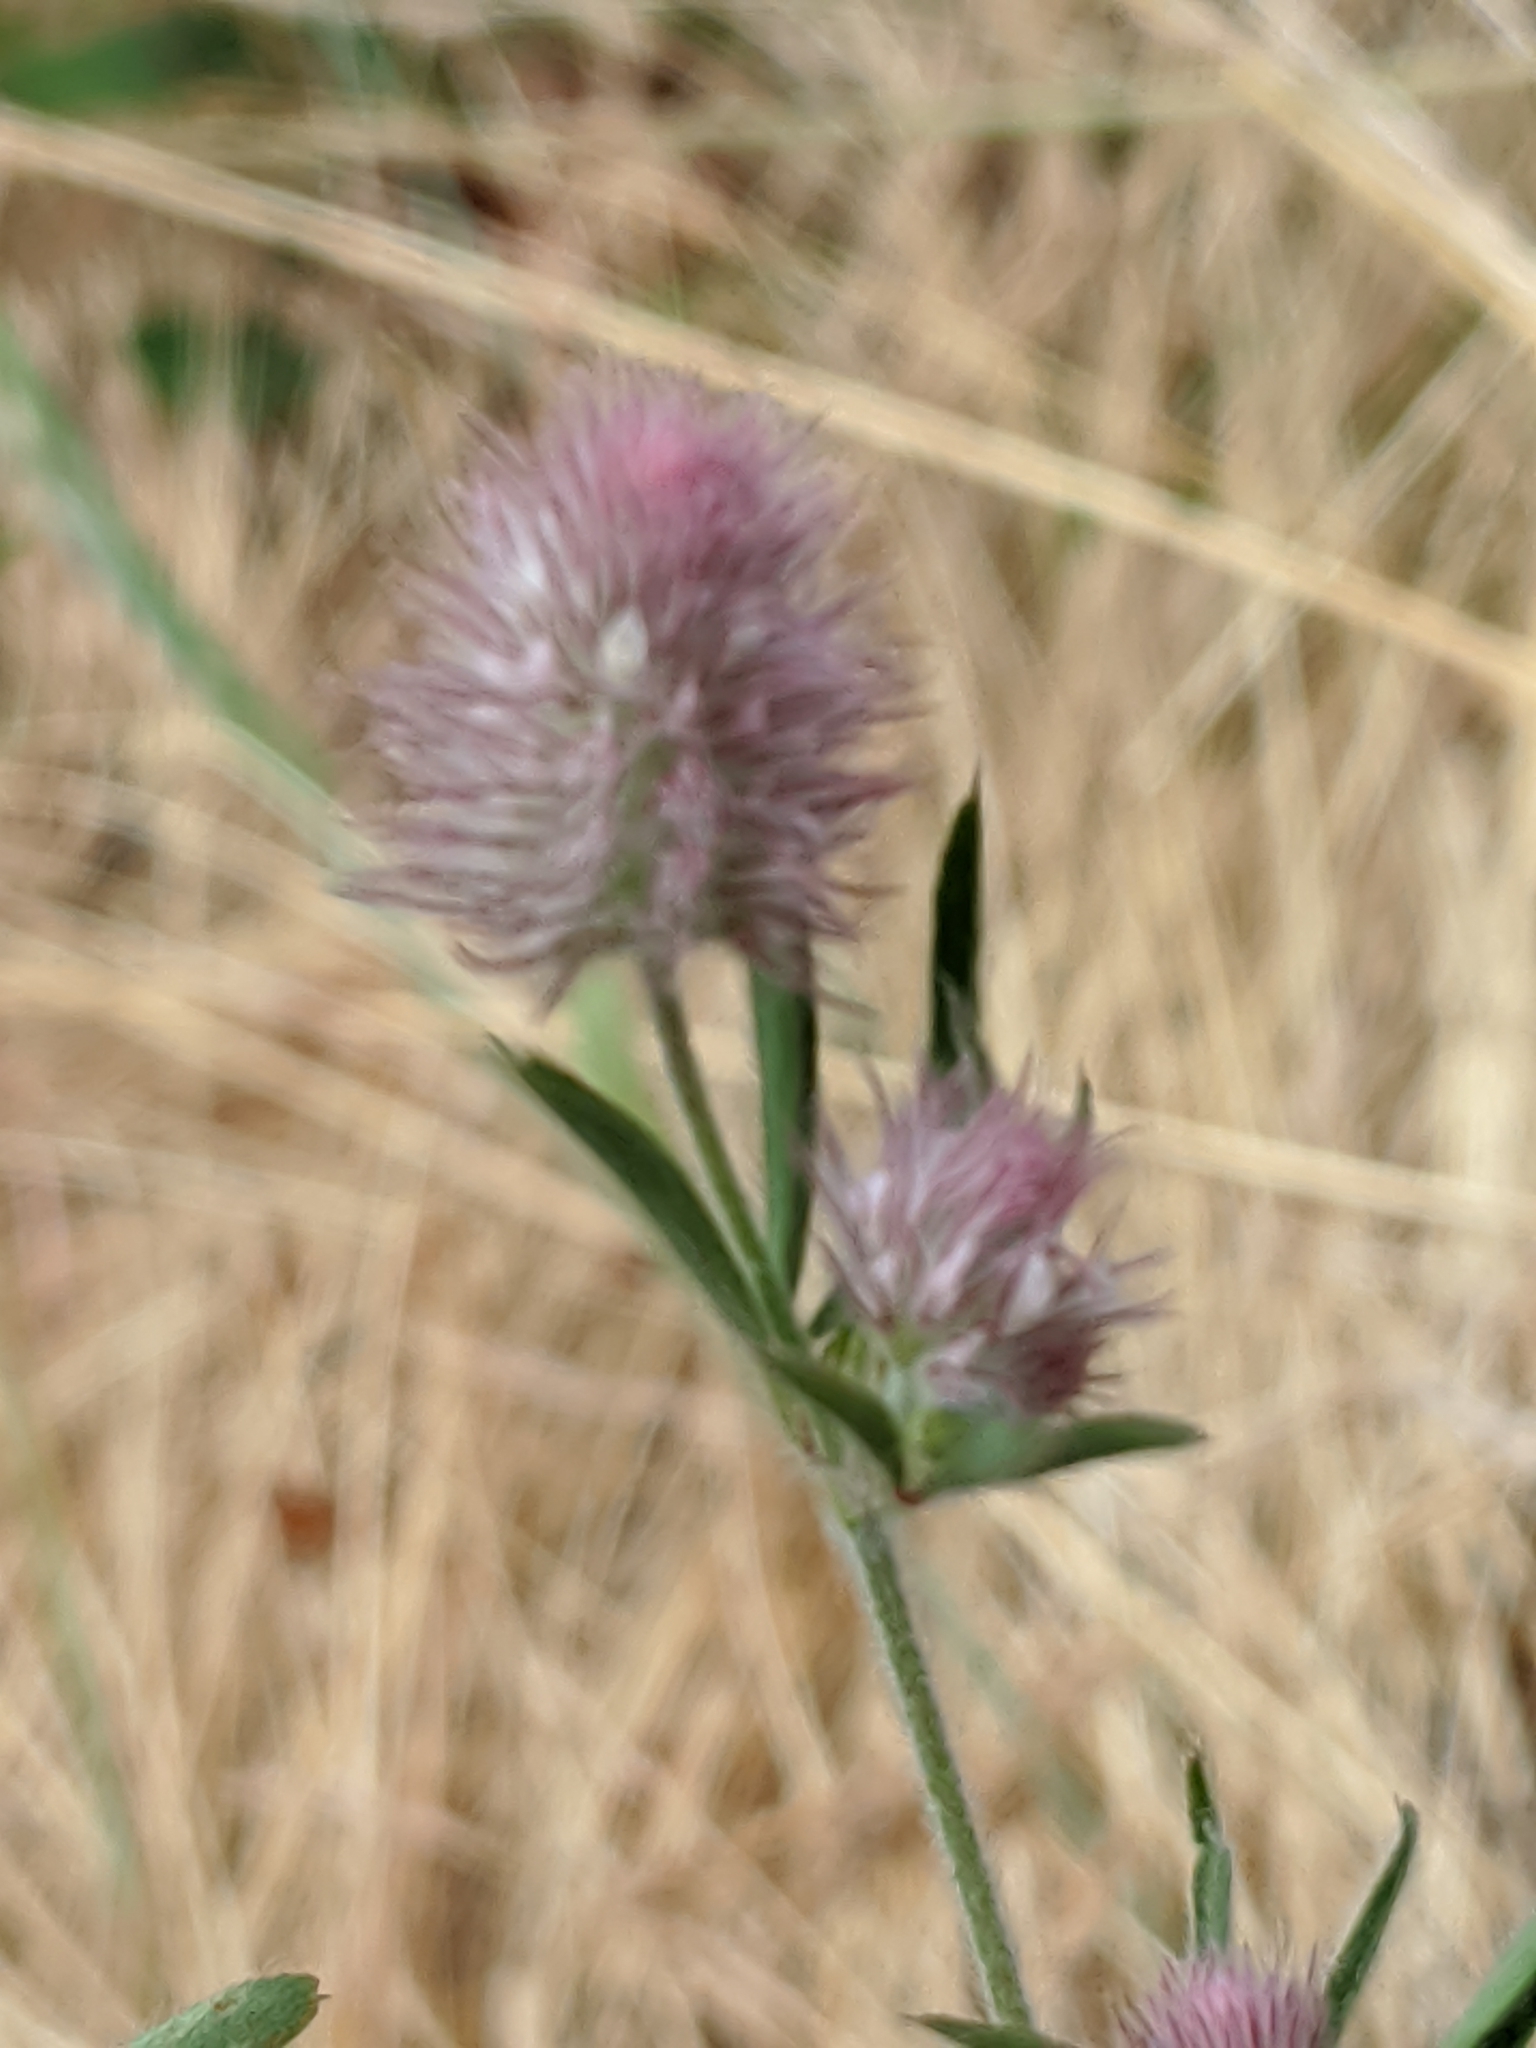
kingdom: Plantae
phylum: Tracheophyta
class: Magnoliopsida
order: Fabales
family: Fabaceae
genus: Trifolium
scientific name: Trifolium arvense
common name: Hare's-foot clover
